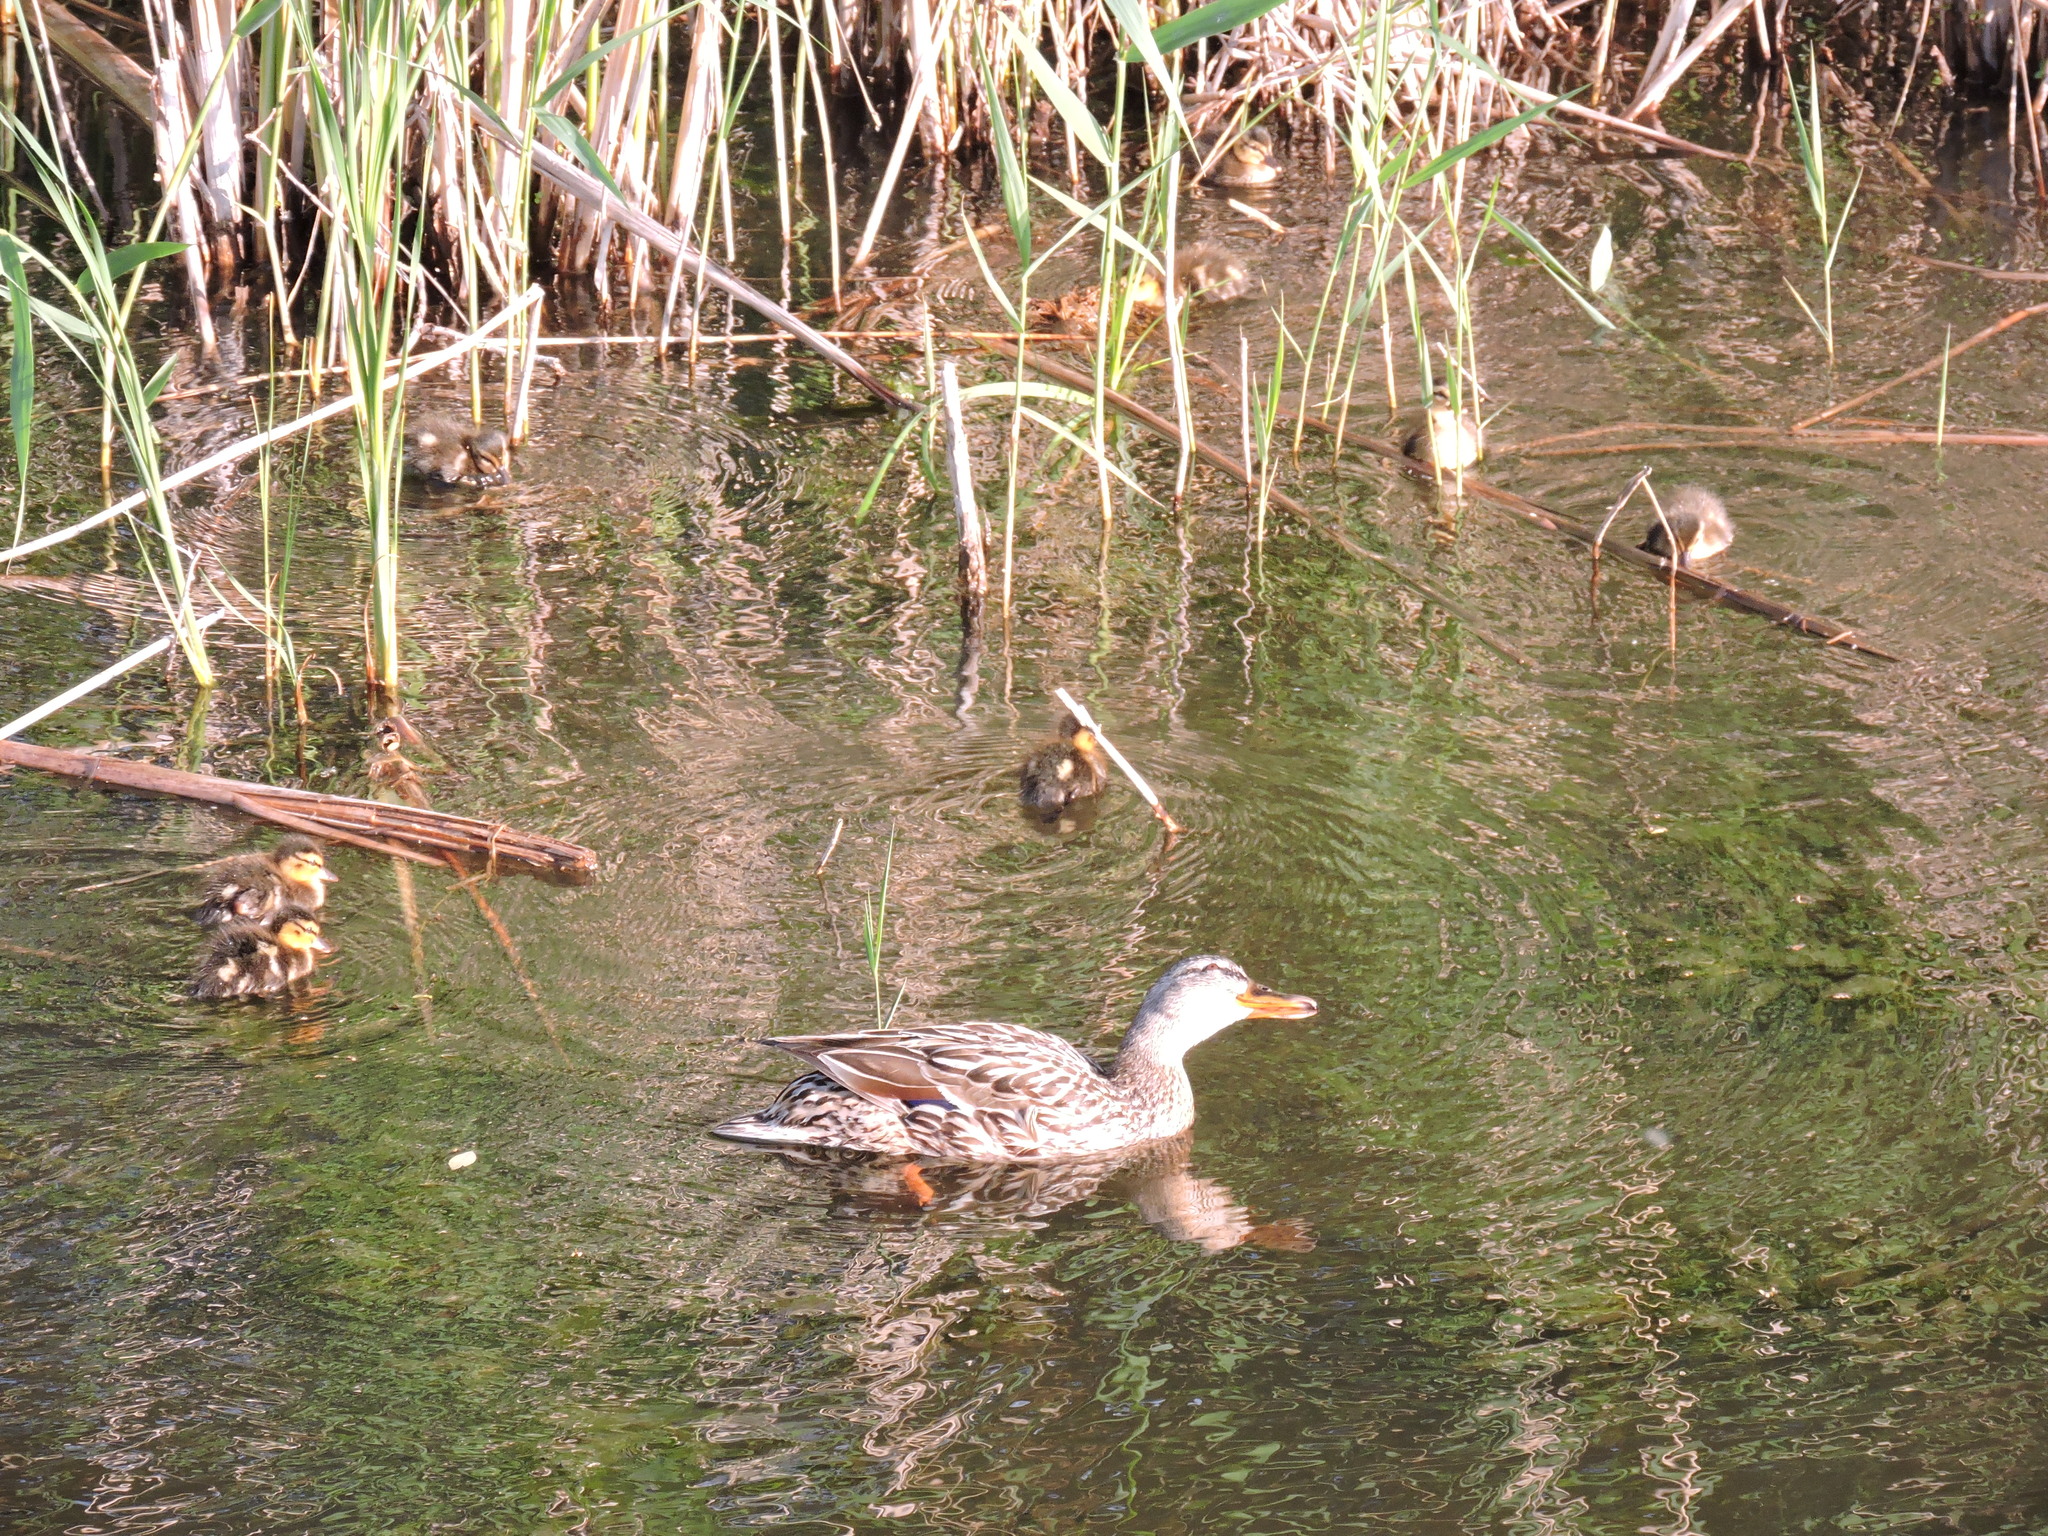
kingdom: Animalia
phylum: Chordata
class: Aves
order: Anseriformes
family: Anatidae
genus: Anas
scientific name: Anas platyrhynchos
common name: Mallard
